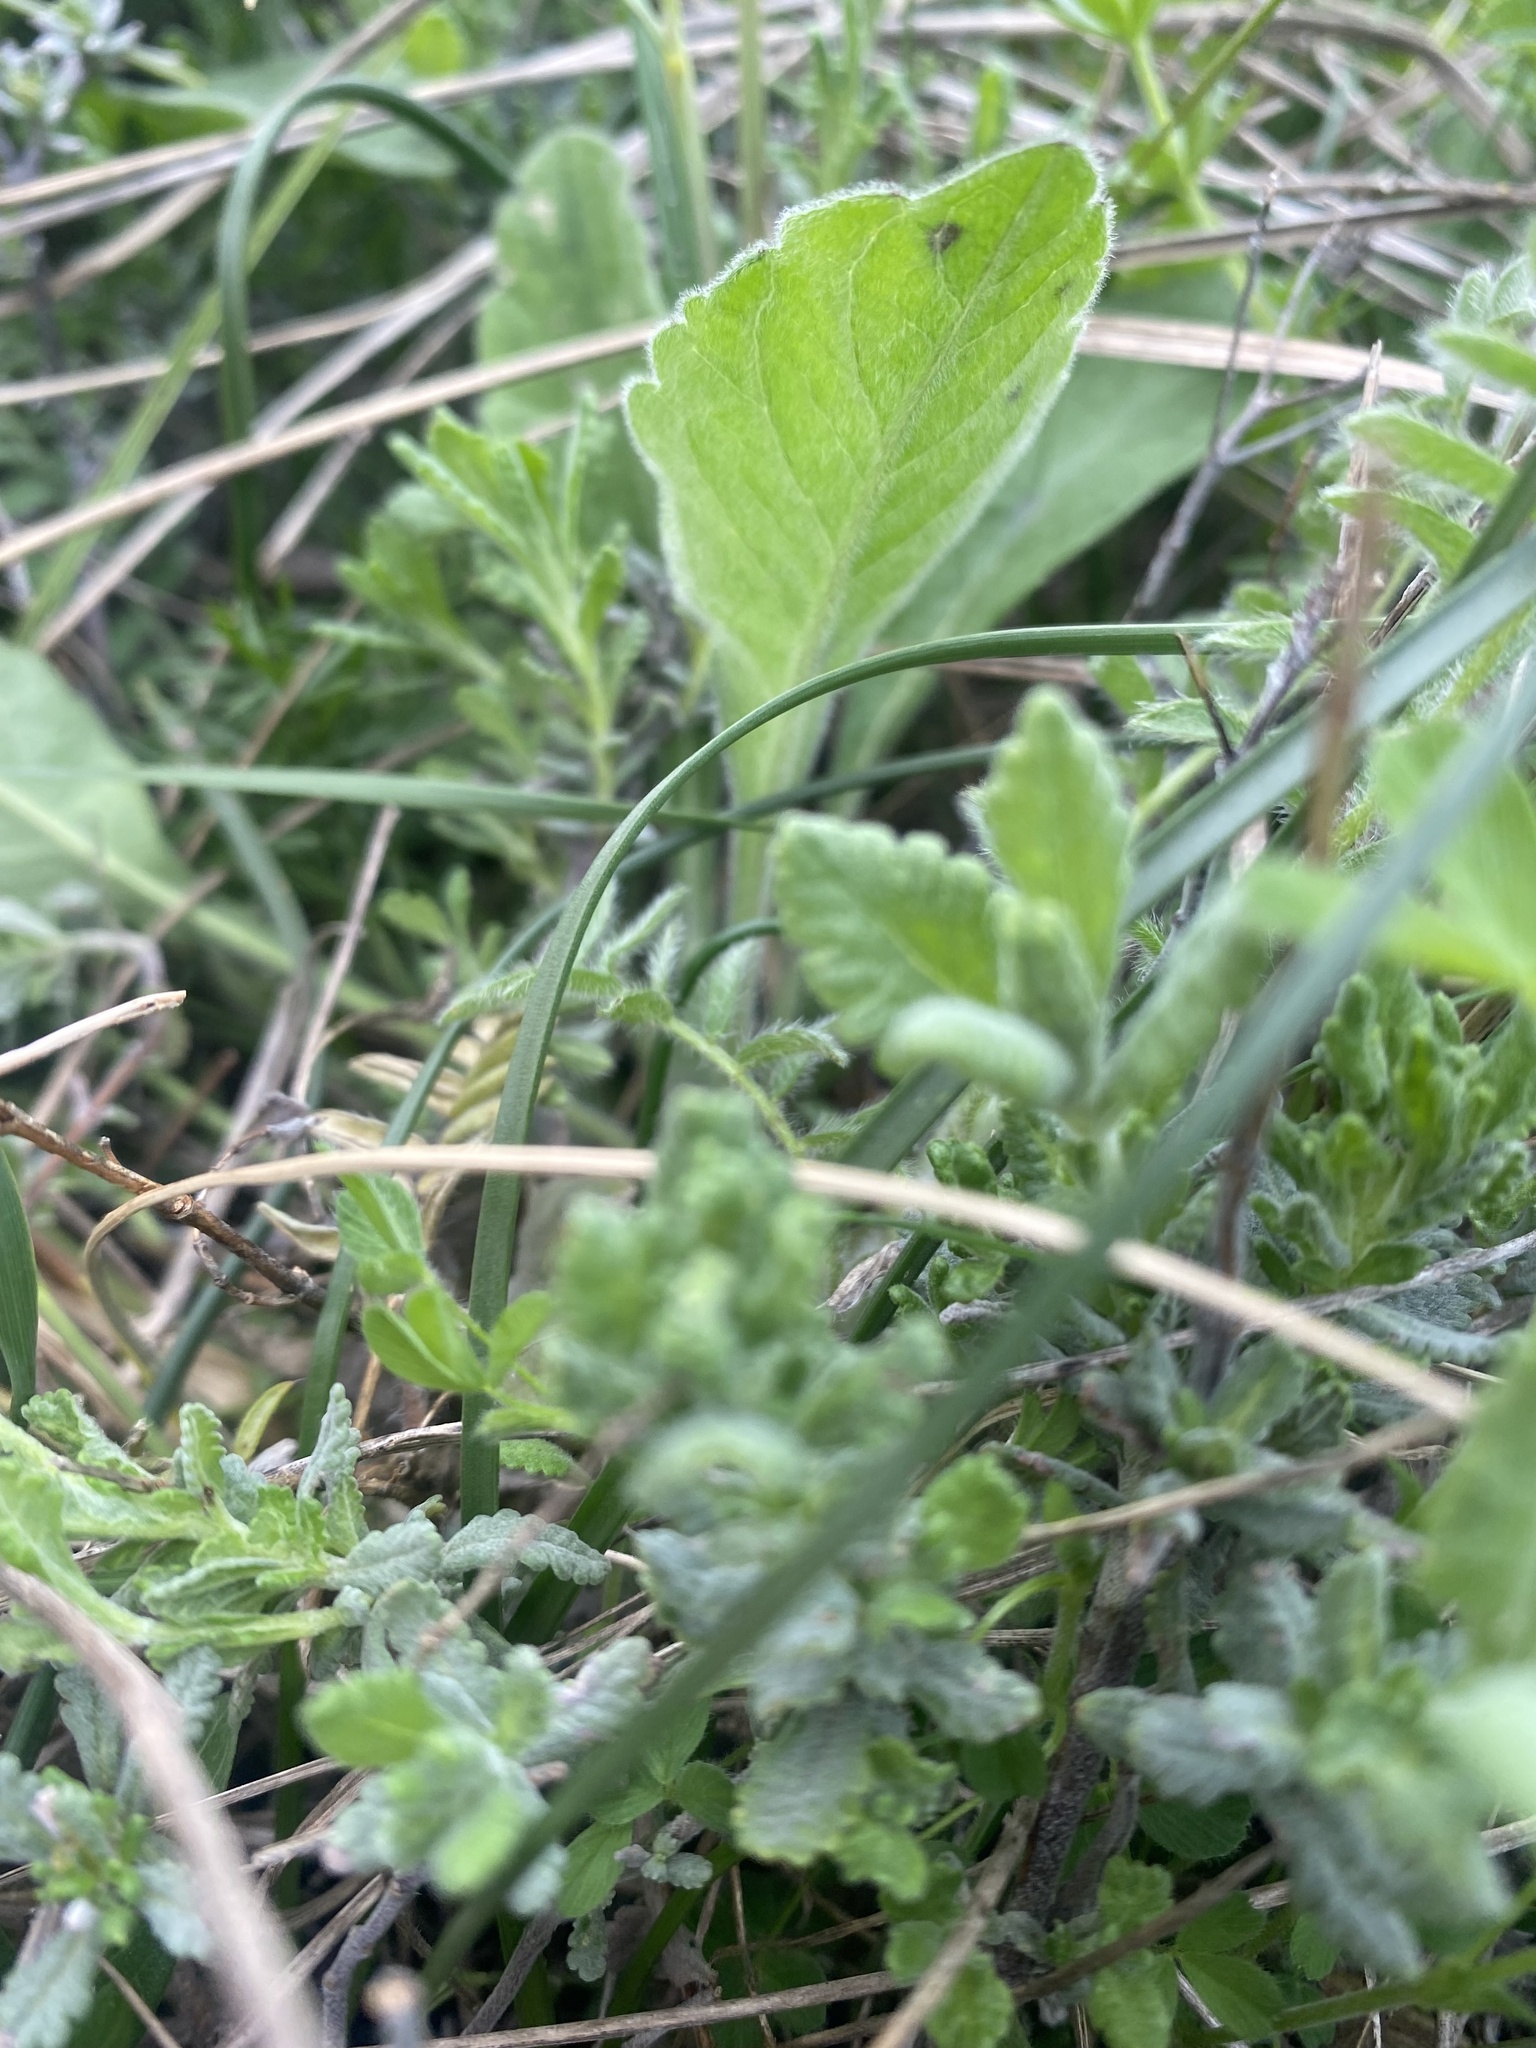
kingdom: Plantae
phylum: Tracheophyta
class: Magnoliopsida
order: Lamiales
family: Lamiaceae
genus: Teucrium
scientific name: Teucrium chamaedrys
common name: Wall germander
